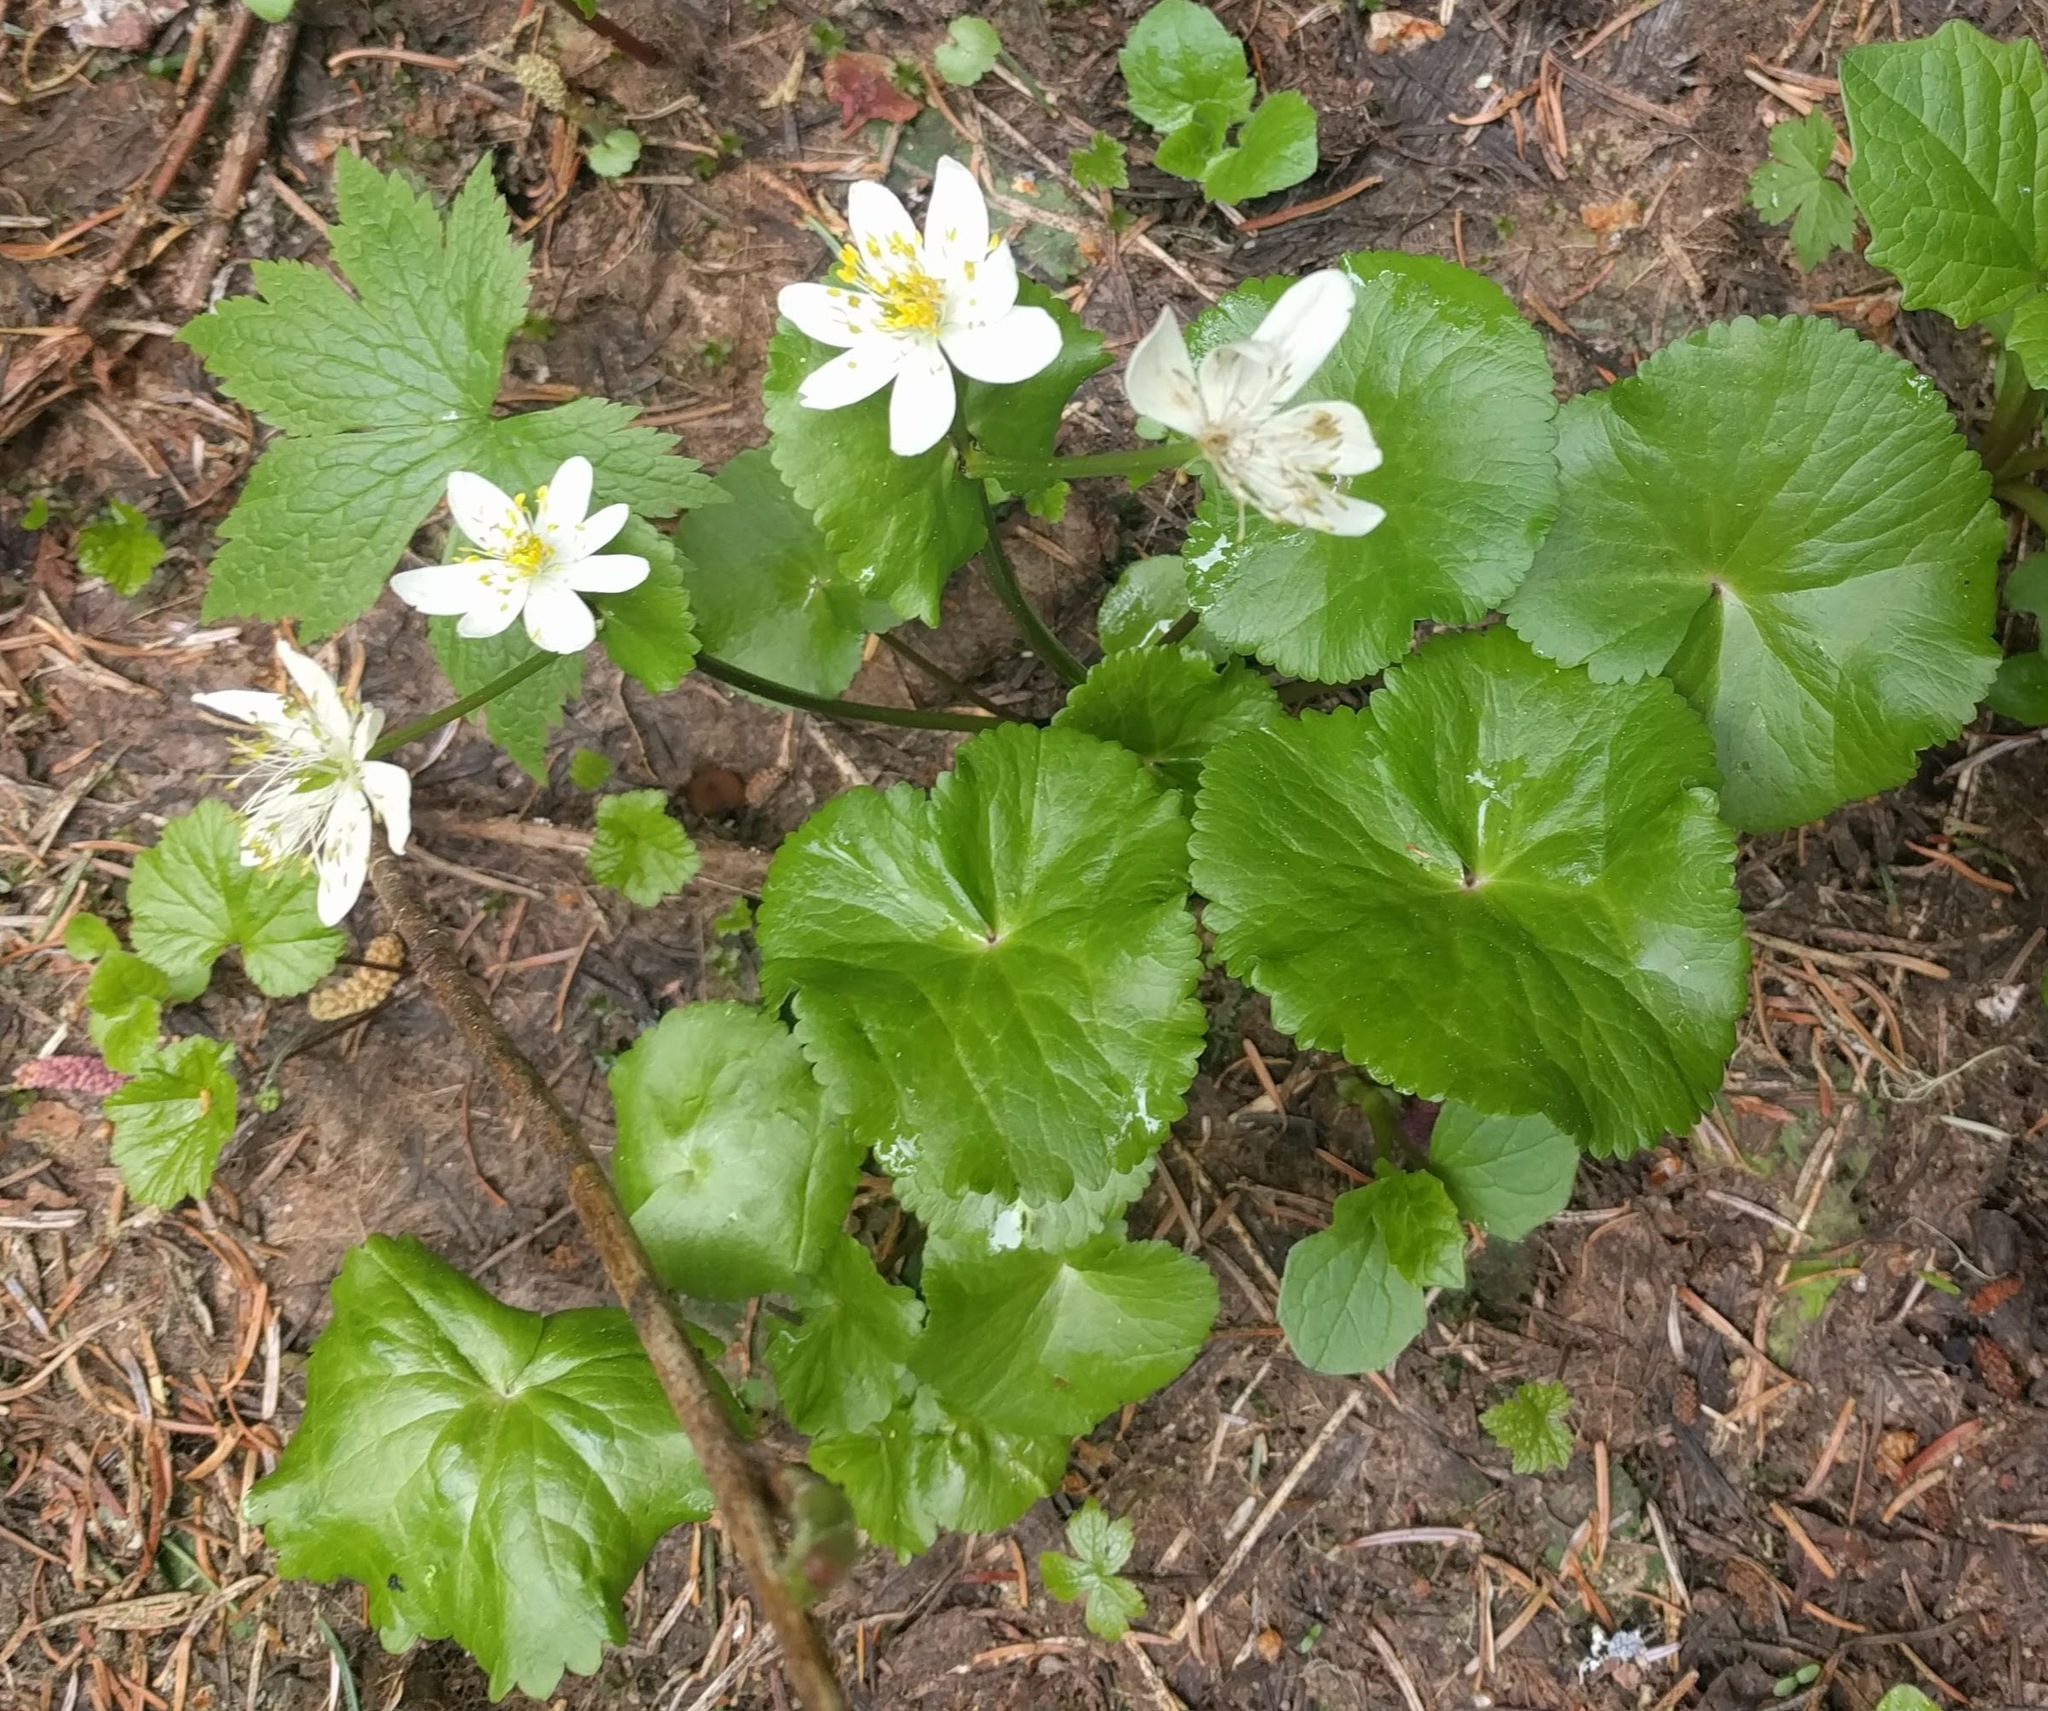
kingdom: Plantae
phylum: Tracheophyta
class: Magnoliopsida
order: Ranunculales
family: Ranunculaceae
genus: Caltha
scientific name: Caltha leptosepala
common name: Elkslip
